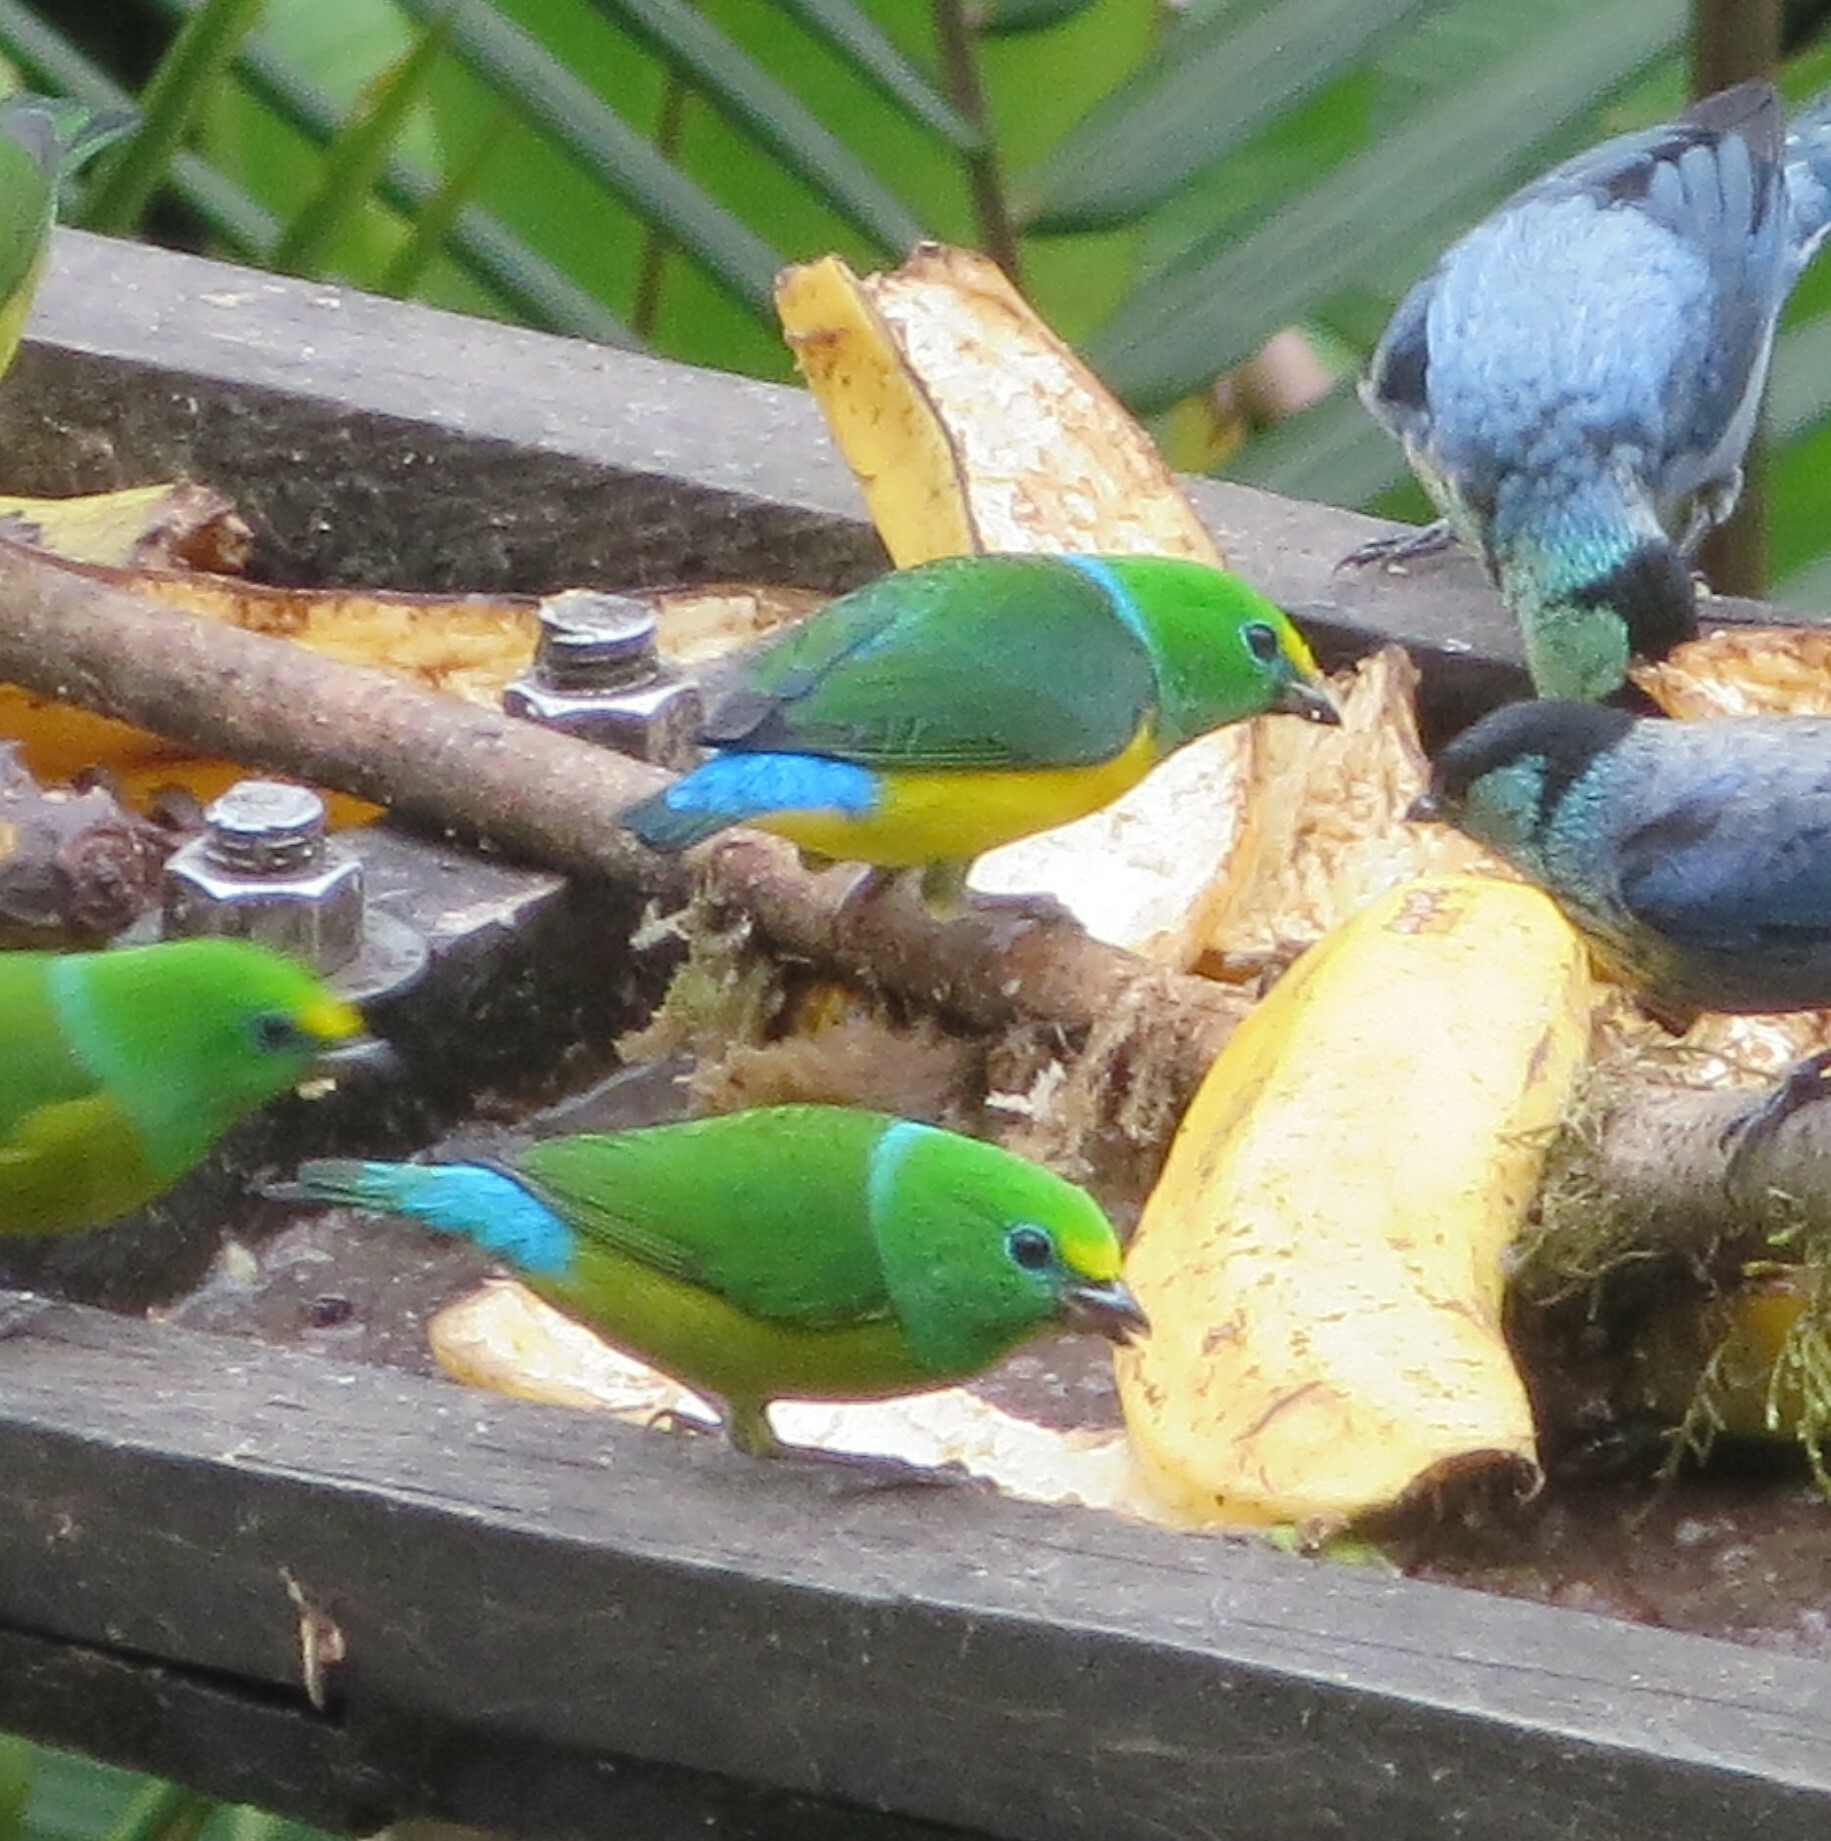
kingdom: Animalia
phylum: Chordata
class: Aves
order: Passeriformes
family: Fringillidae
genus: Chlorophonia
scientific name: Chlorophonia cyanea
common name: Blue-naped chlorophonia
